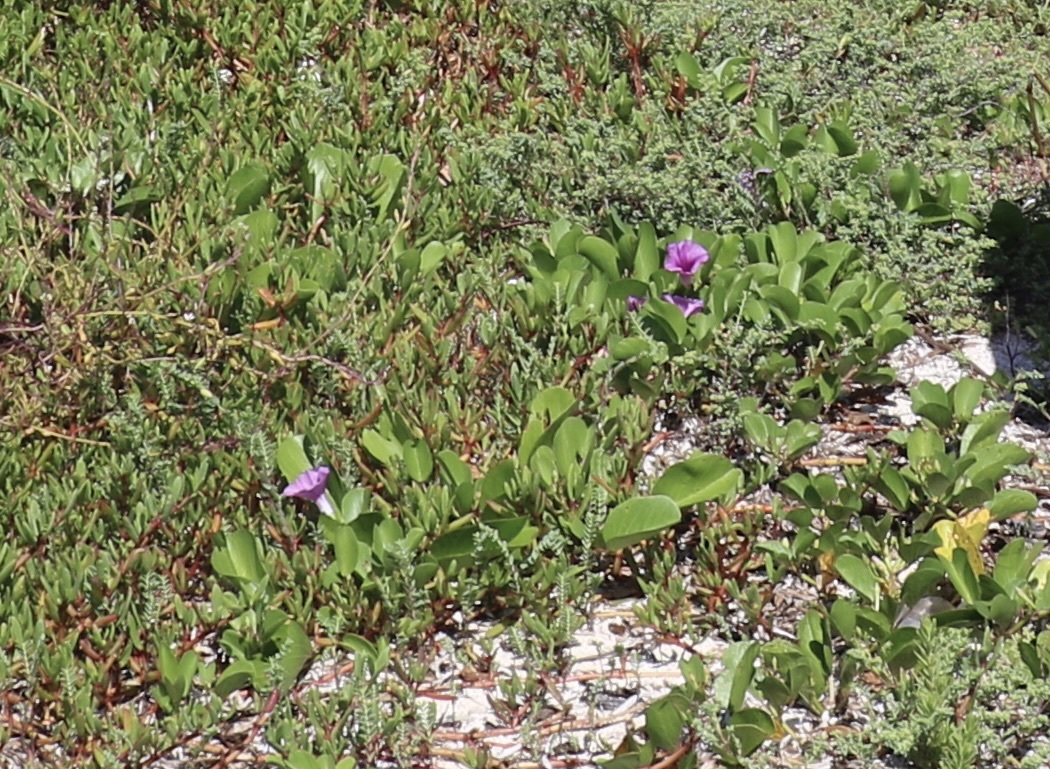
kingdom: Plantae
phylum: Tracheophyta
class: Magnoliopsida
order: Solanales
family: Convolvulaceae
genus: Ipomoea
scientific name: Ipomoea pes-caprae
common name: Beach morning glory
